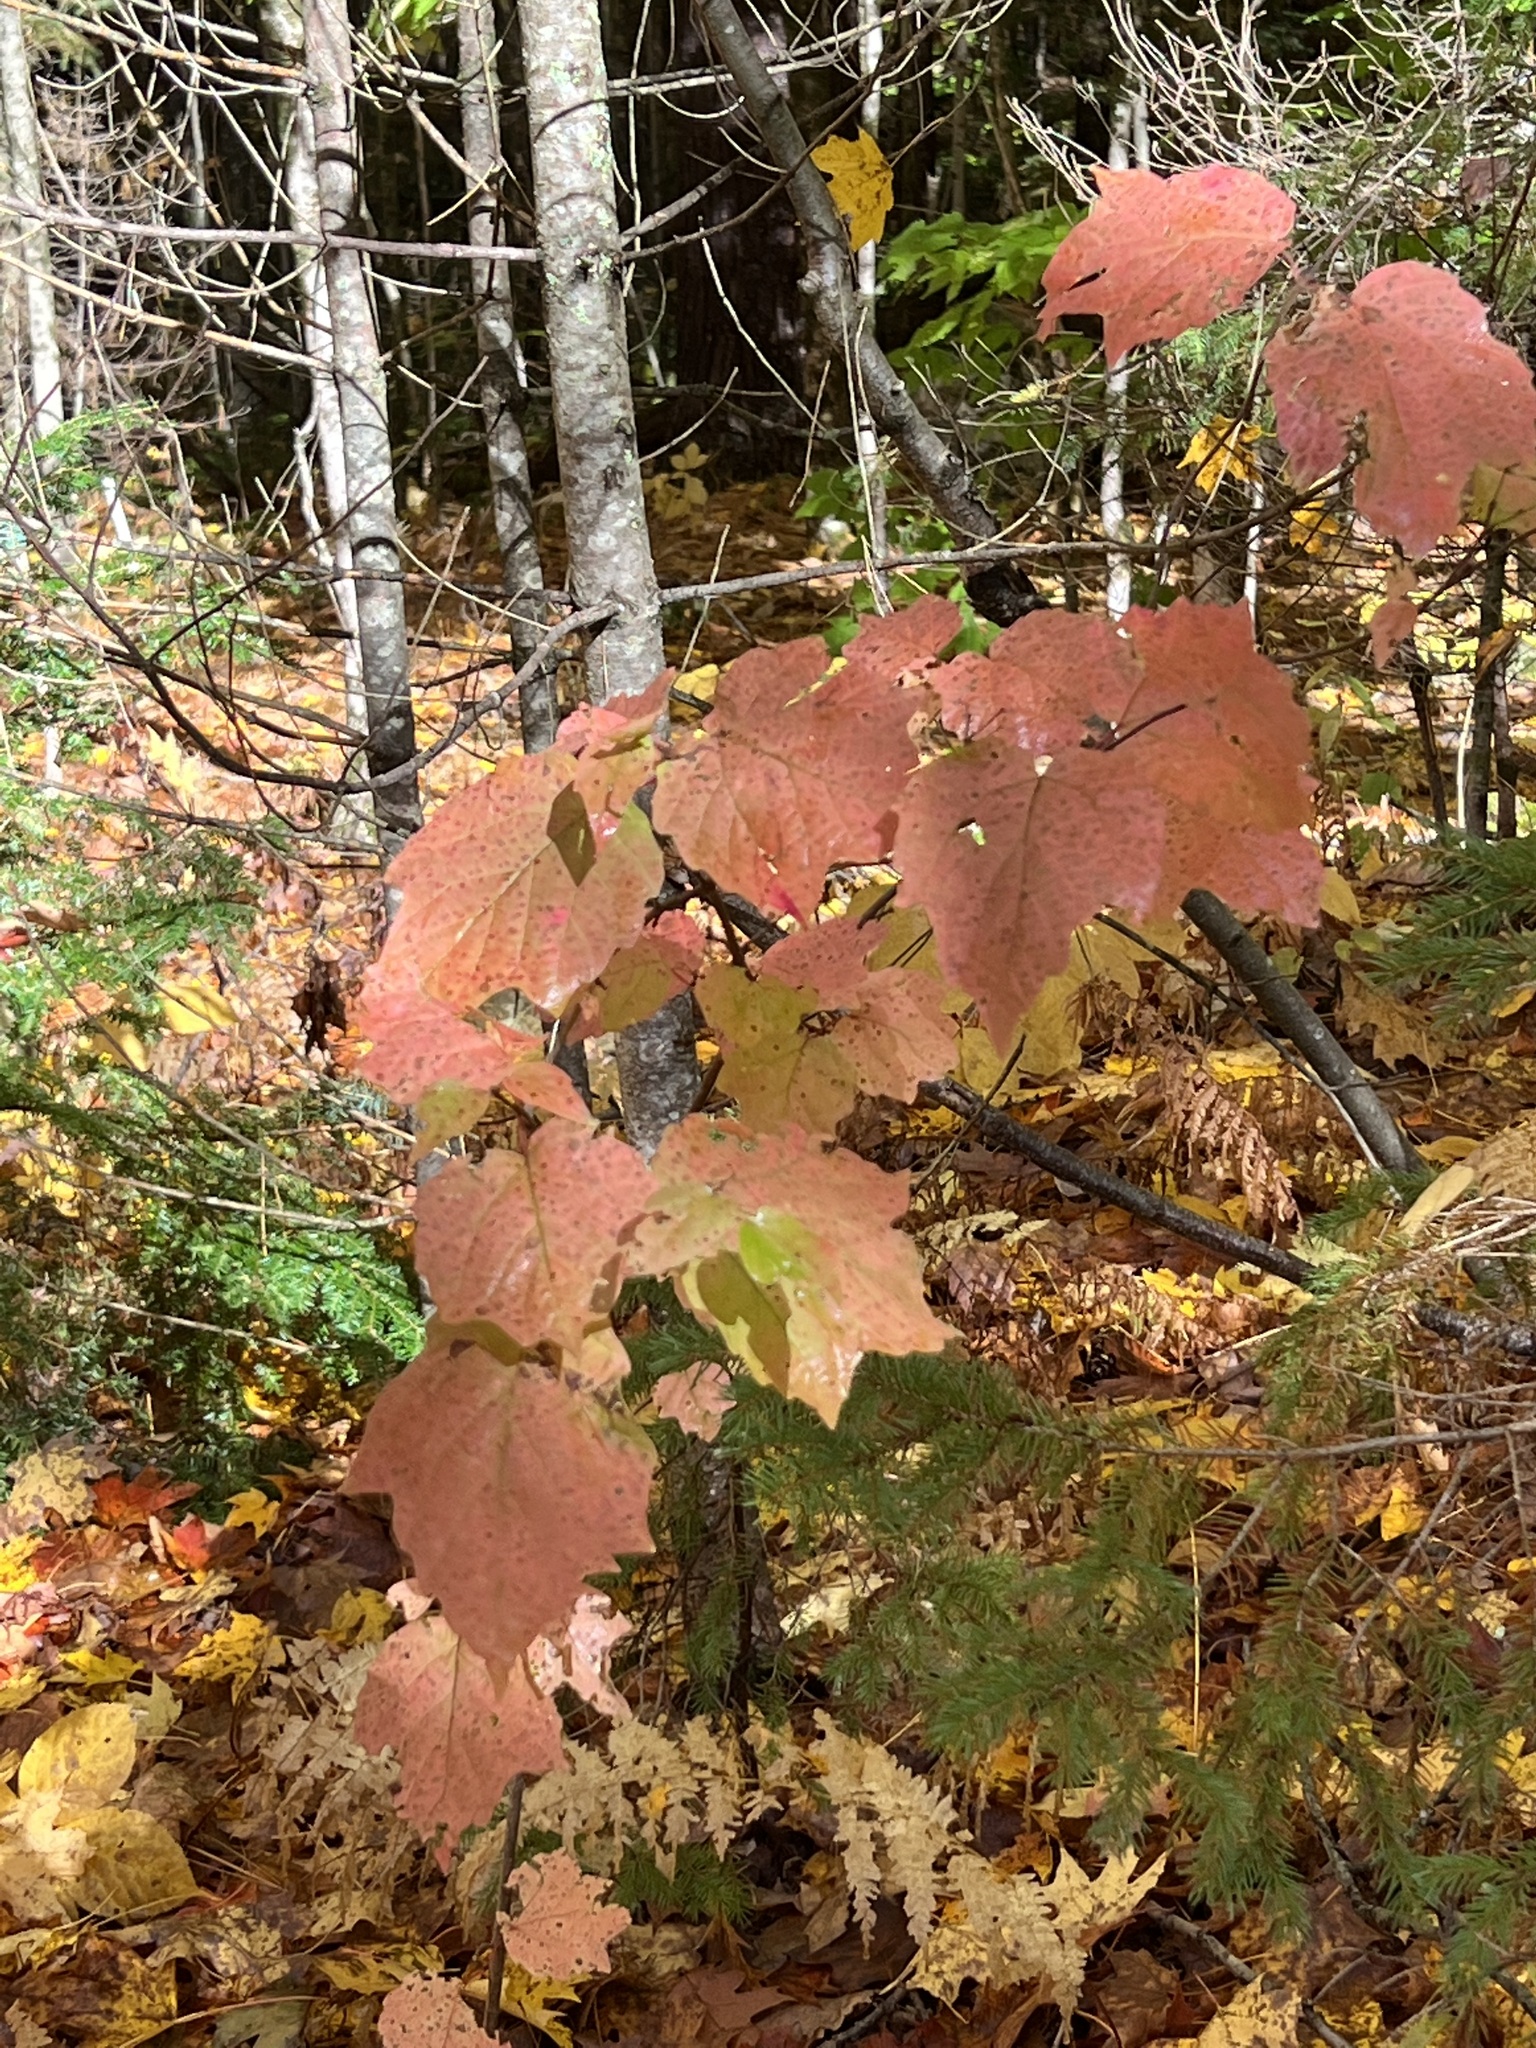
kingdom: Plantae
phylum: Tracheophyta
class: Magnoliopsida
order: Dipsacales
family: Viburnaceae
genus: Viburnum
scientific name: Viburnum acerifolium
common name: Dockmackie
